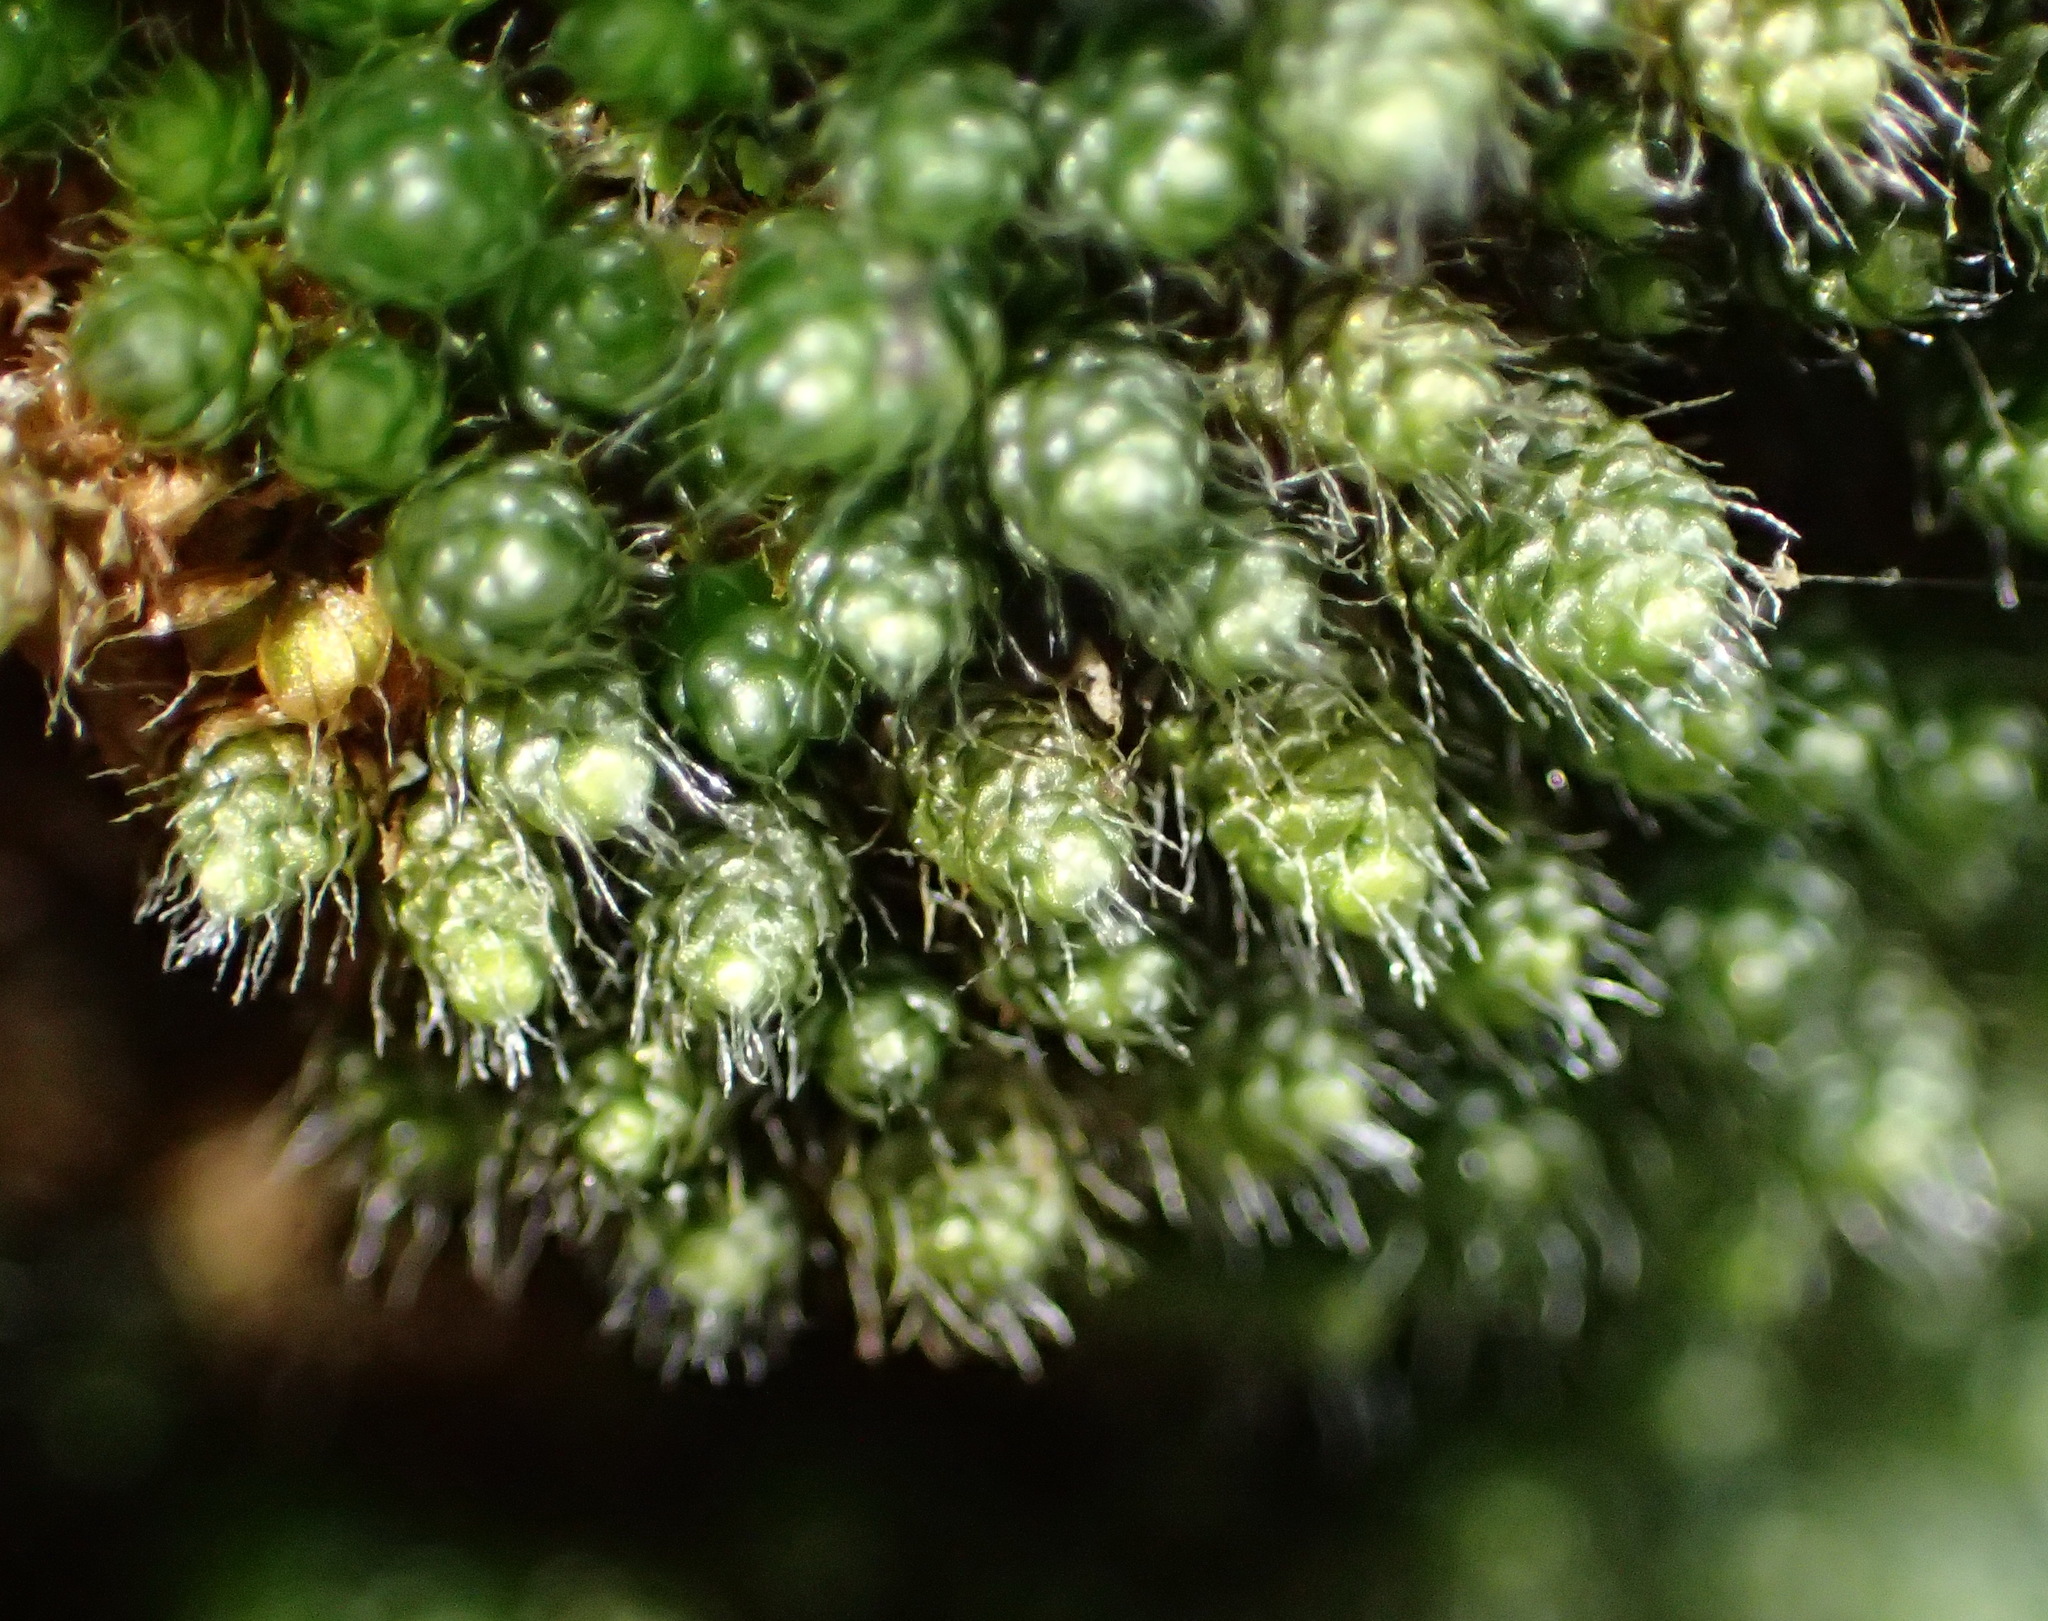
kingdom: Plantae
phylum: Bryophyta
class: Bryopsida
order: Bryales
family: Bryaceae
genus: Leptostomopsis
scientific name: Leptostomopsis pulchra
